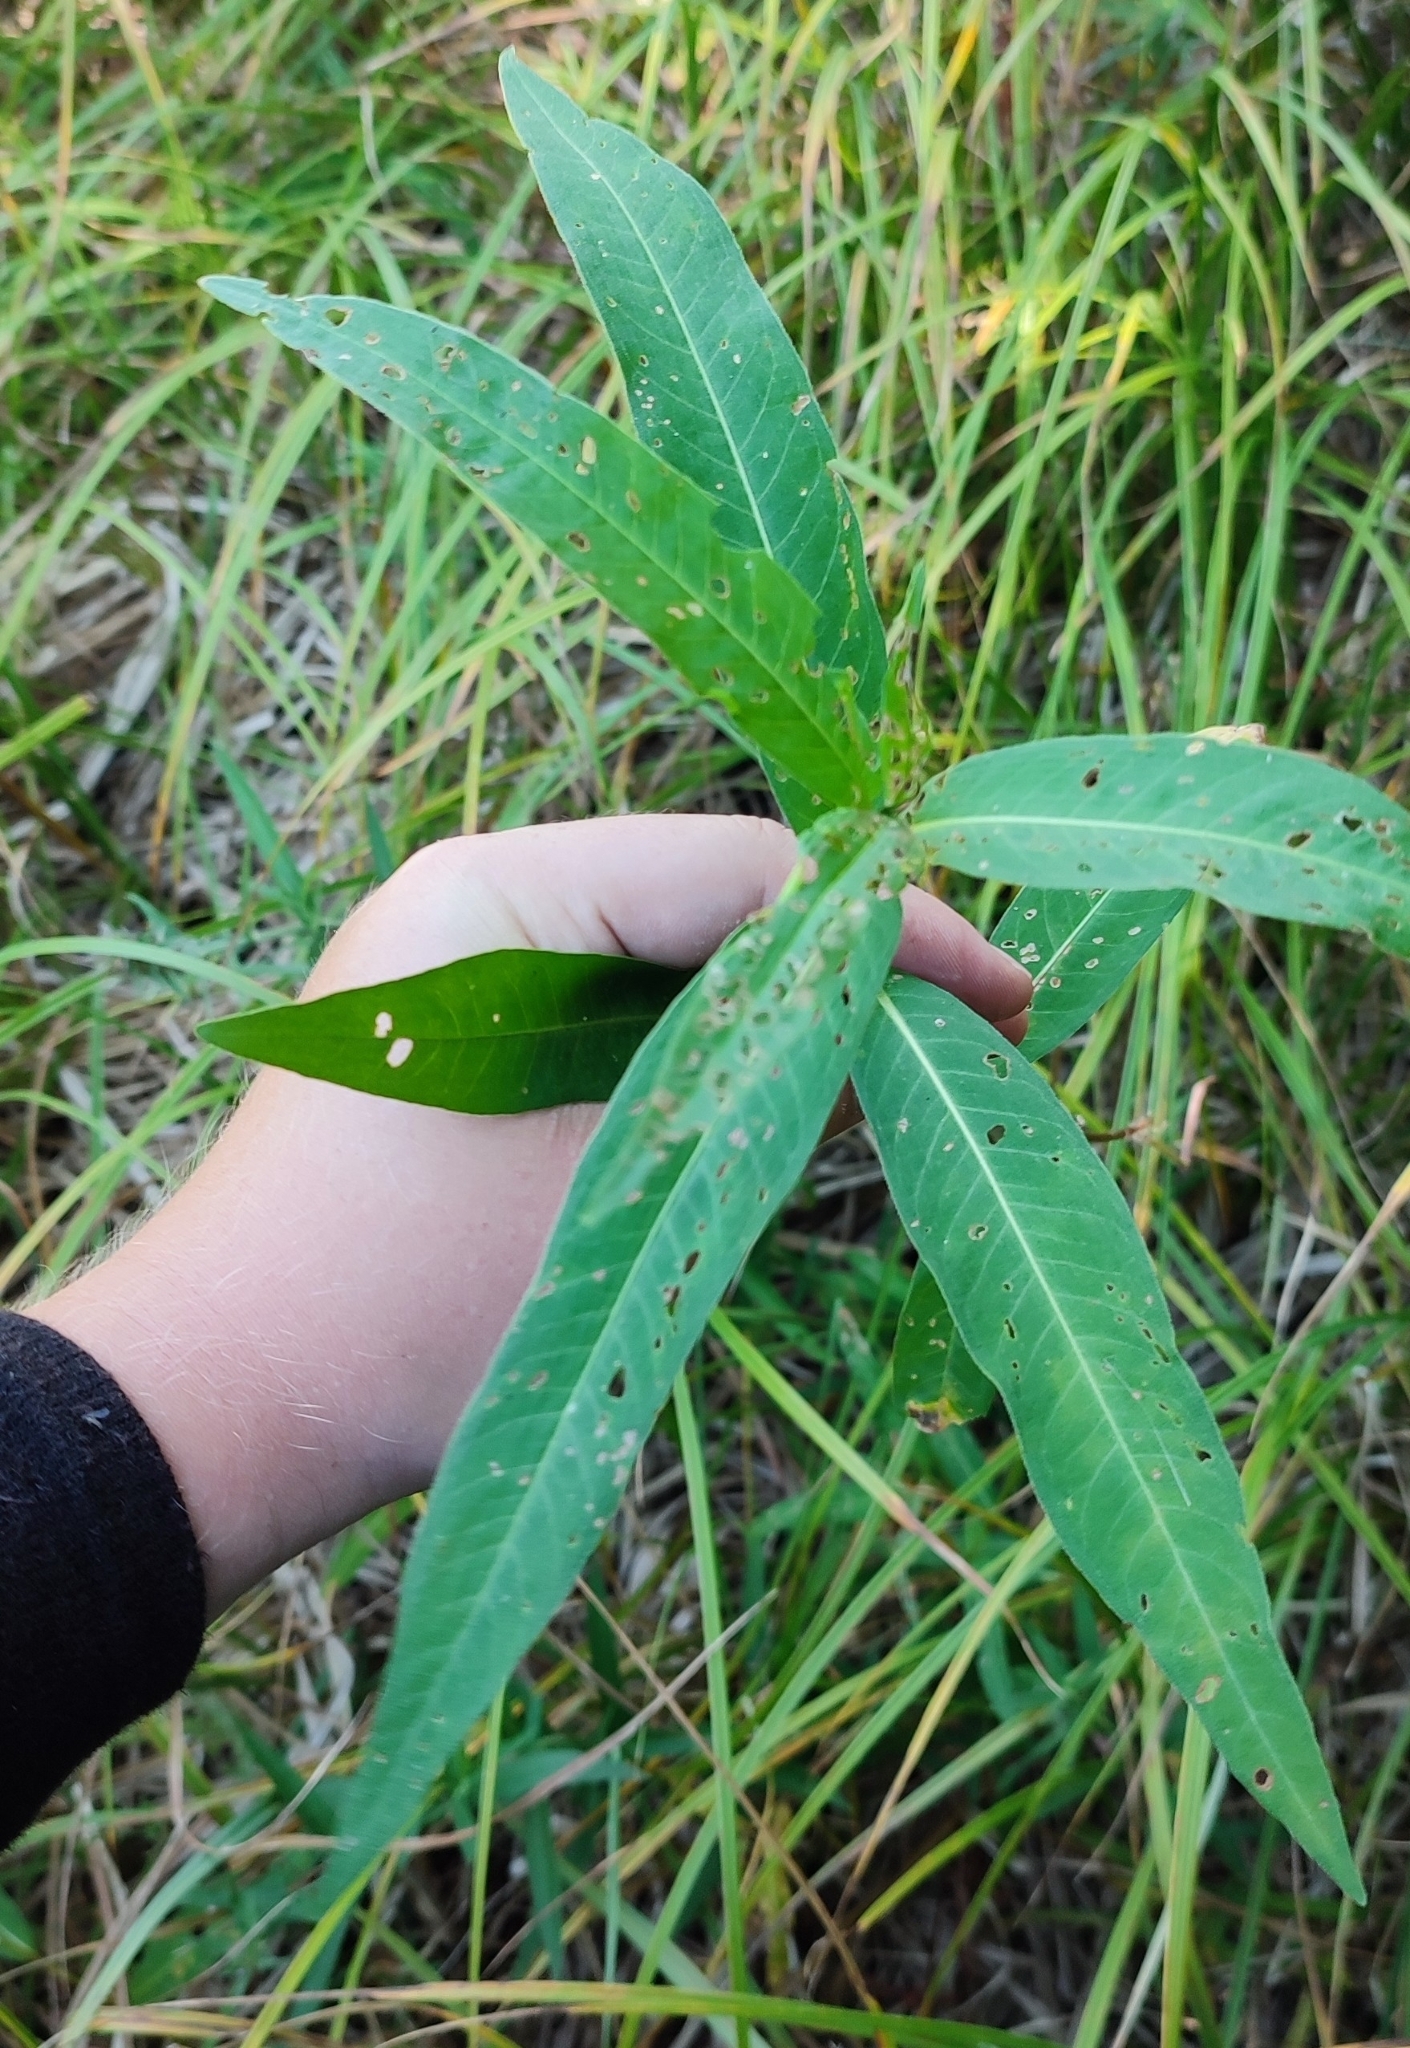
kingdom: Plantae
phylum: Tracheophyta
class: Magnoliopsida
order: Caryophyllales
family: Polygonaceae
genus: Persicaria
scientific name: Persicaria amphibia
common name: Amphibious bistort
